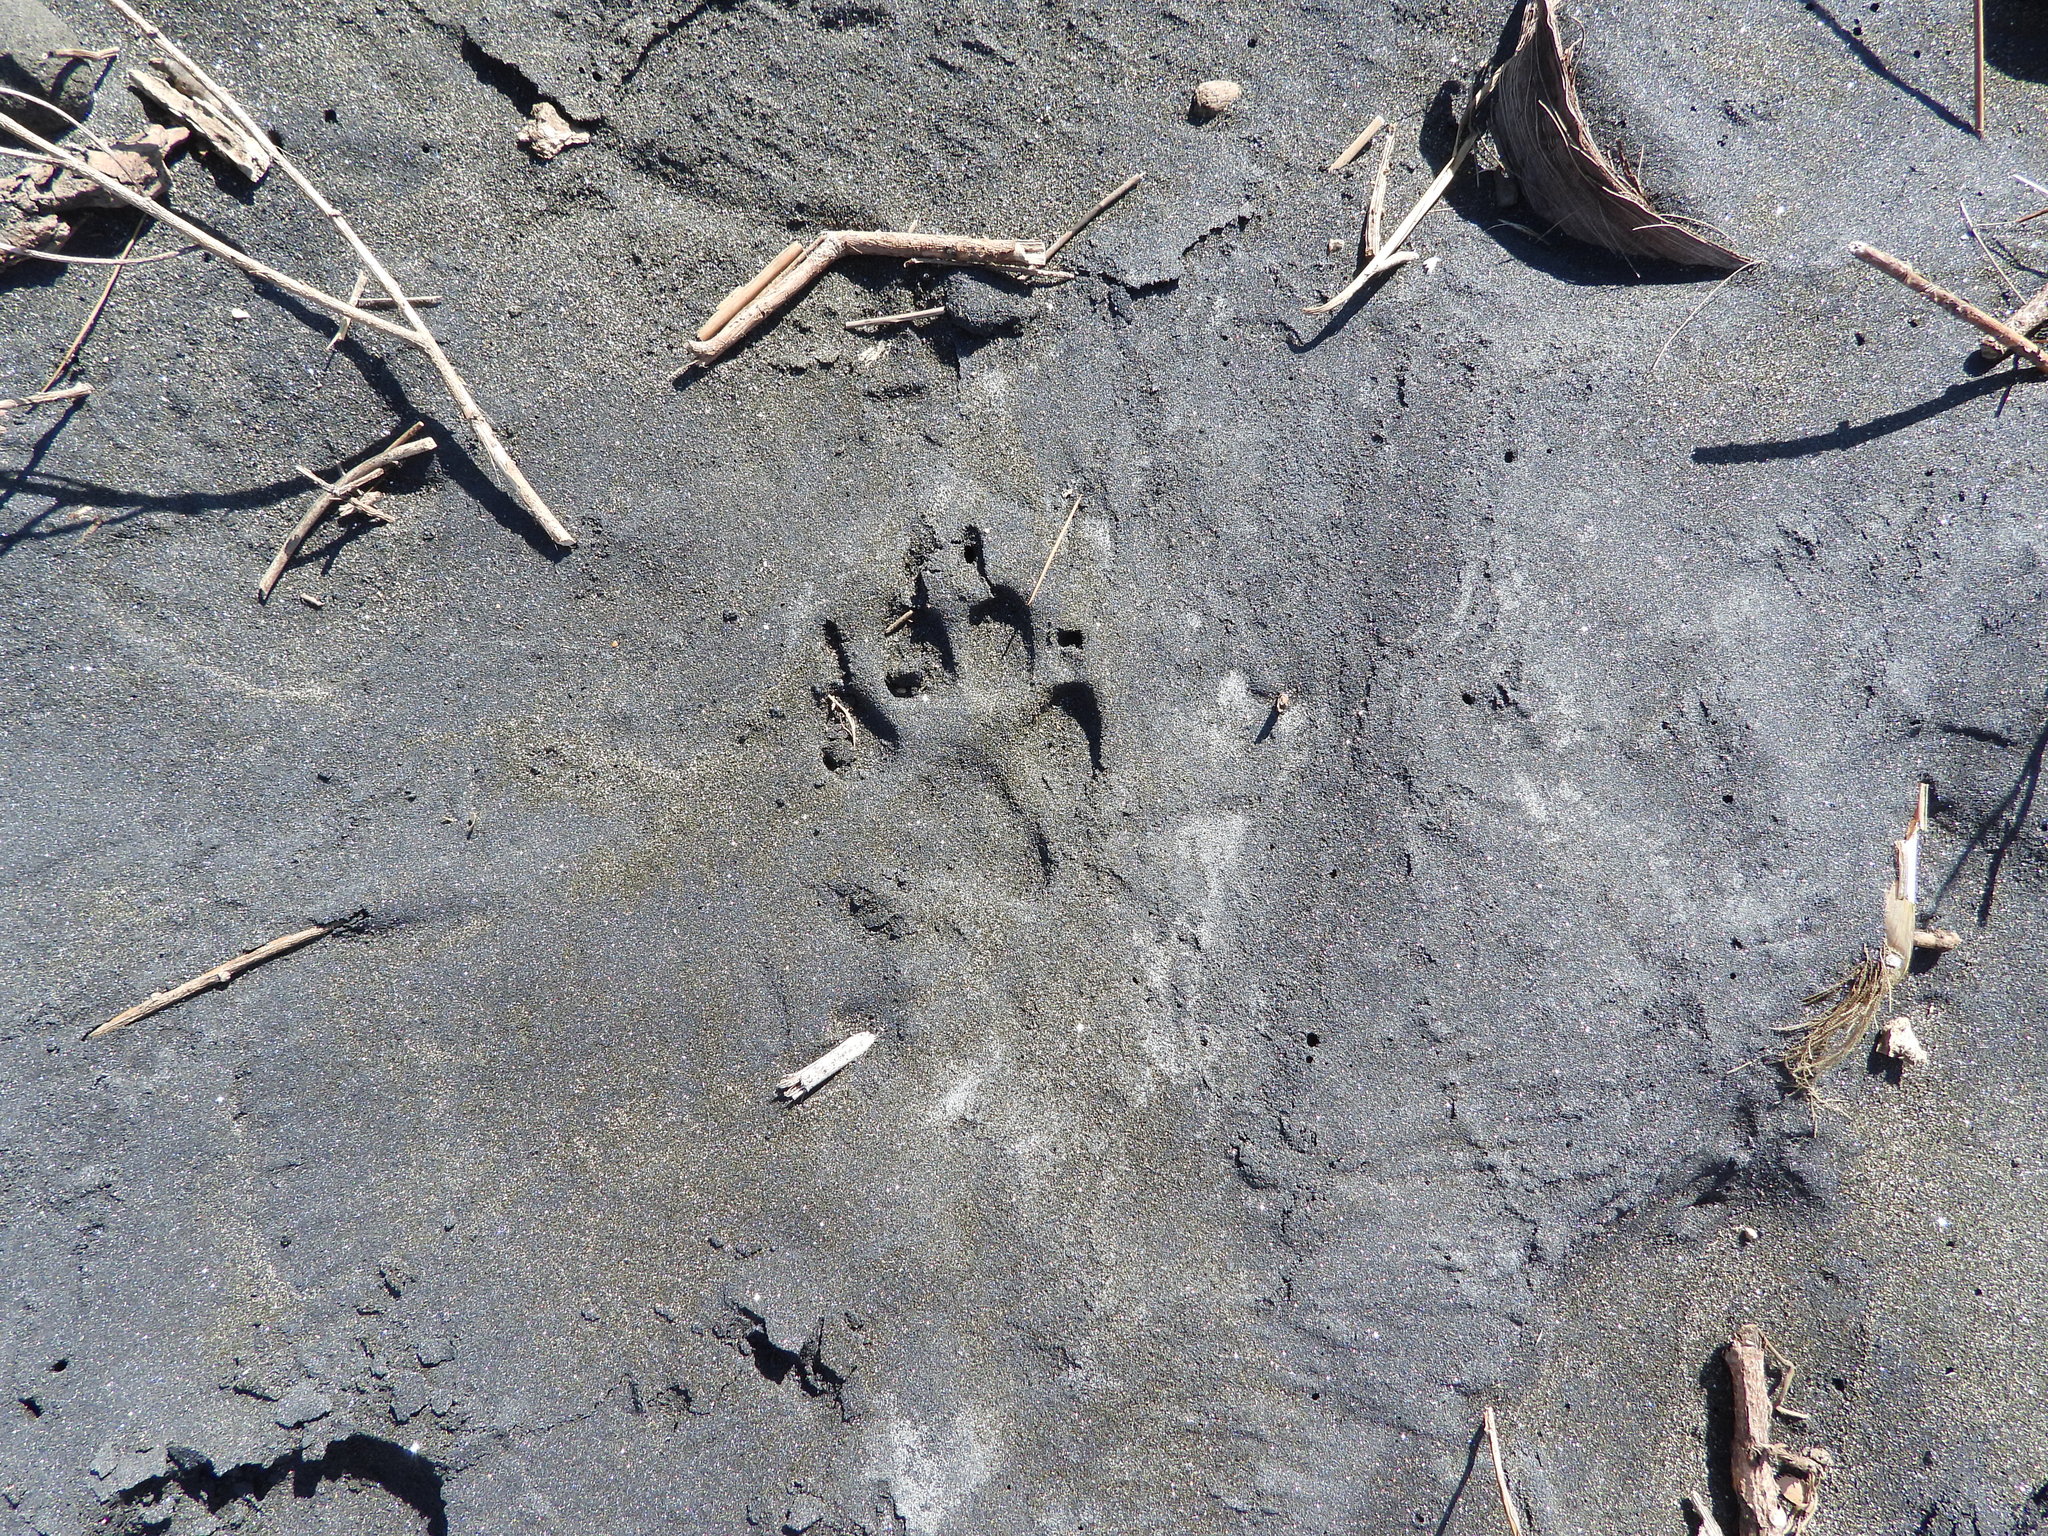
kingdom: Animalia
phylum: Chordata
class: Aves
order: Charadriiformes
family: Charadriidae
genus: Anarhynchus
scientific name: Anarhynchus
